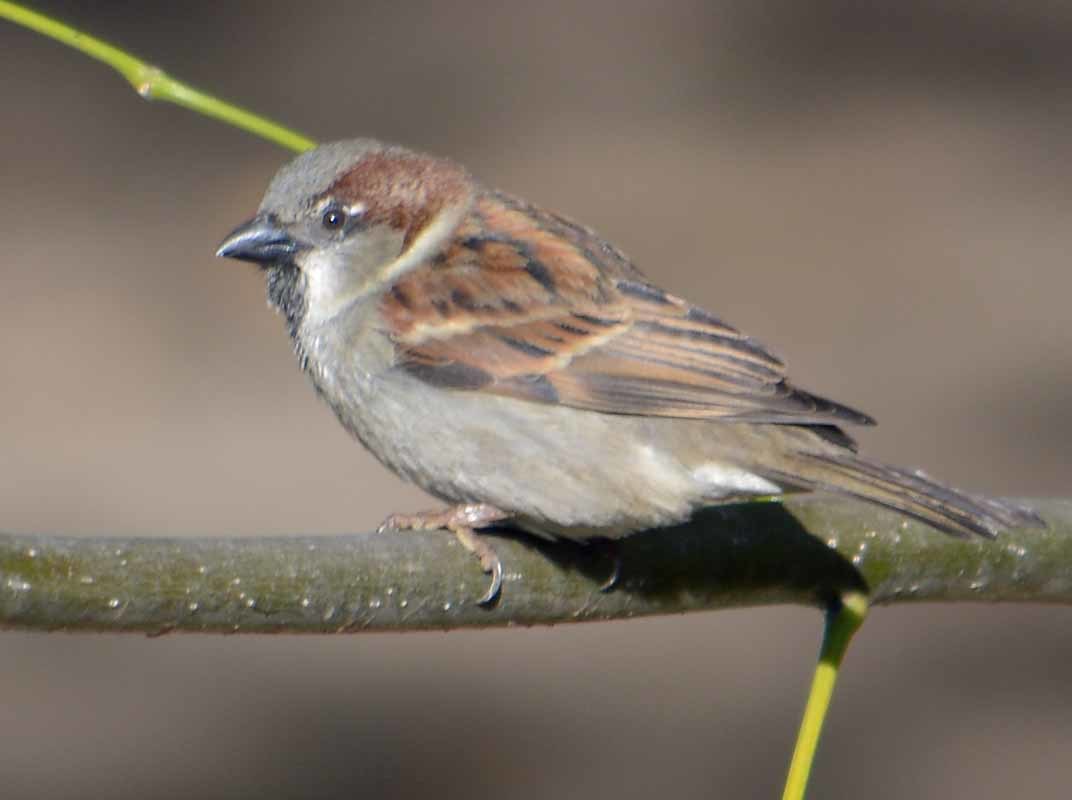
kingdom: Animalia
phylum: Chordata
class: Aves
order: Passeriformes
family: Passeridae
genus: Passer
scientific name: Passer domesticus
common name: House sparrow
